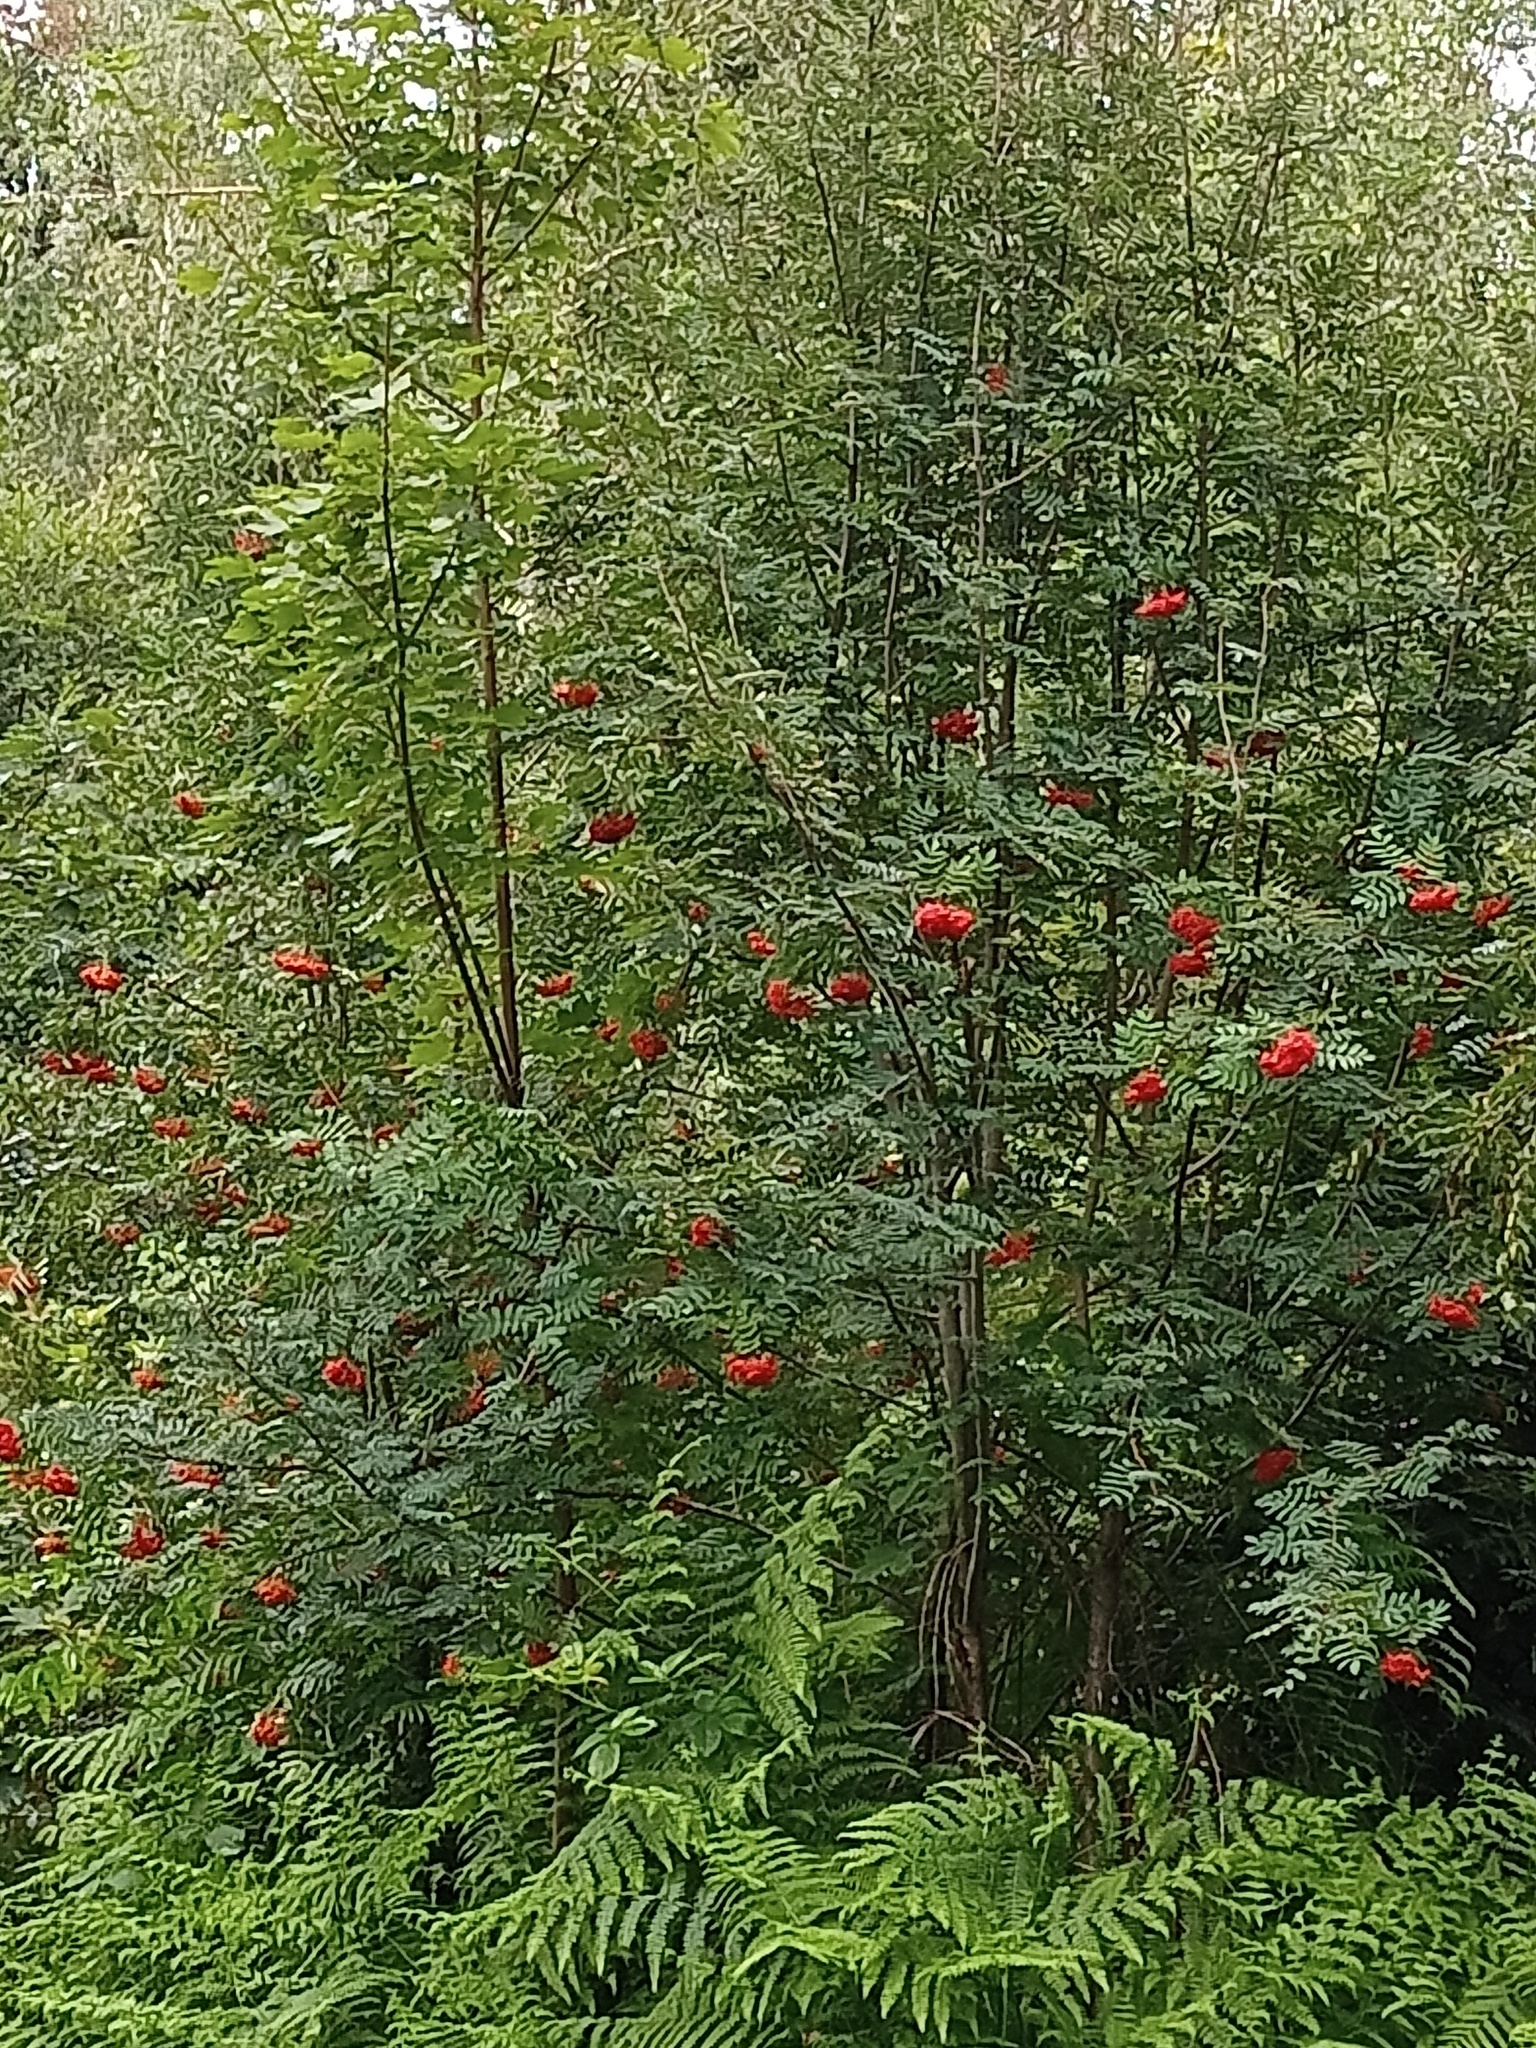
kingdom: Plantae
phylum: Tracheophyta
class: Magnoliopsida
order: Rosales
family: Rosaceae
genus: Sorbus
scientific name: Sorbus aucuparia
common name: Rowan
